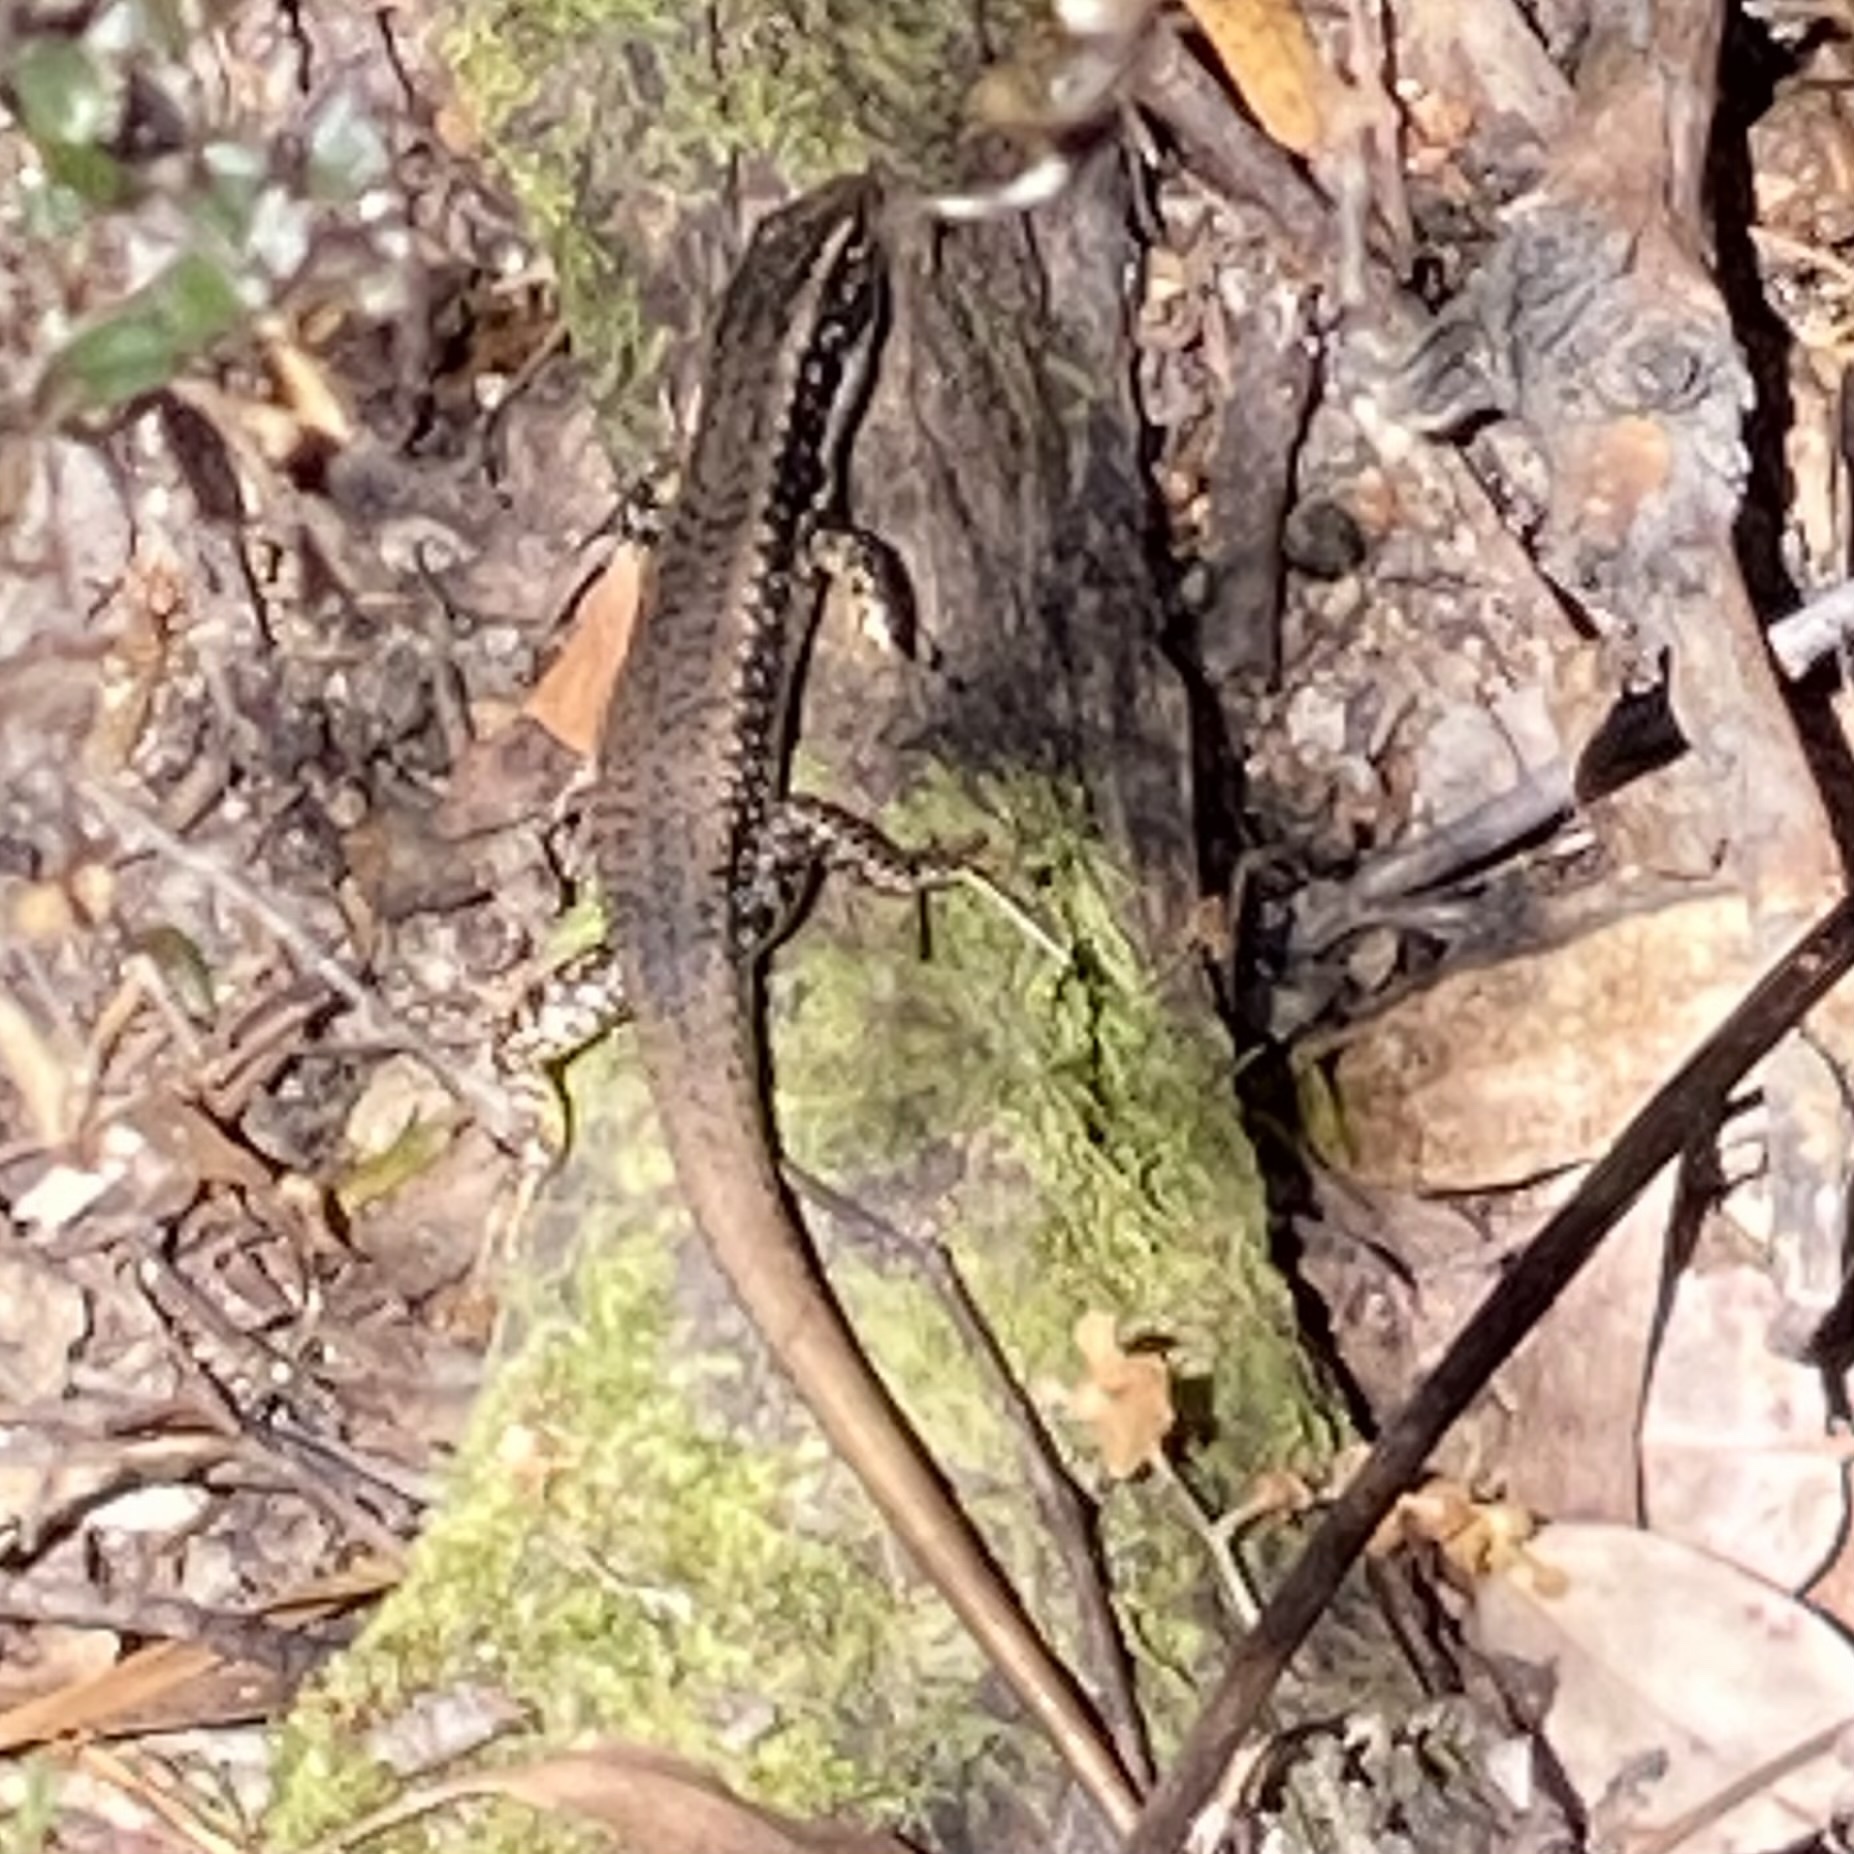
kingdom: Animalia
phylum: Chordata
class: Squamata
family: Scincidae
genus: Eulamprus
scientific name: Eulamprus heatwolei
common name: Warm-temperate water-skink
